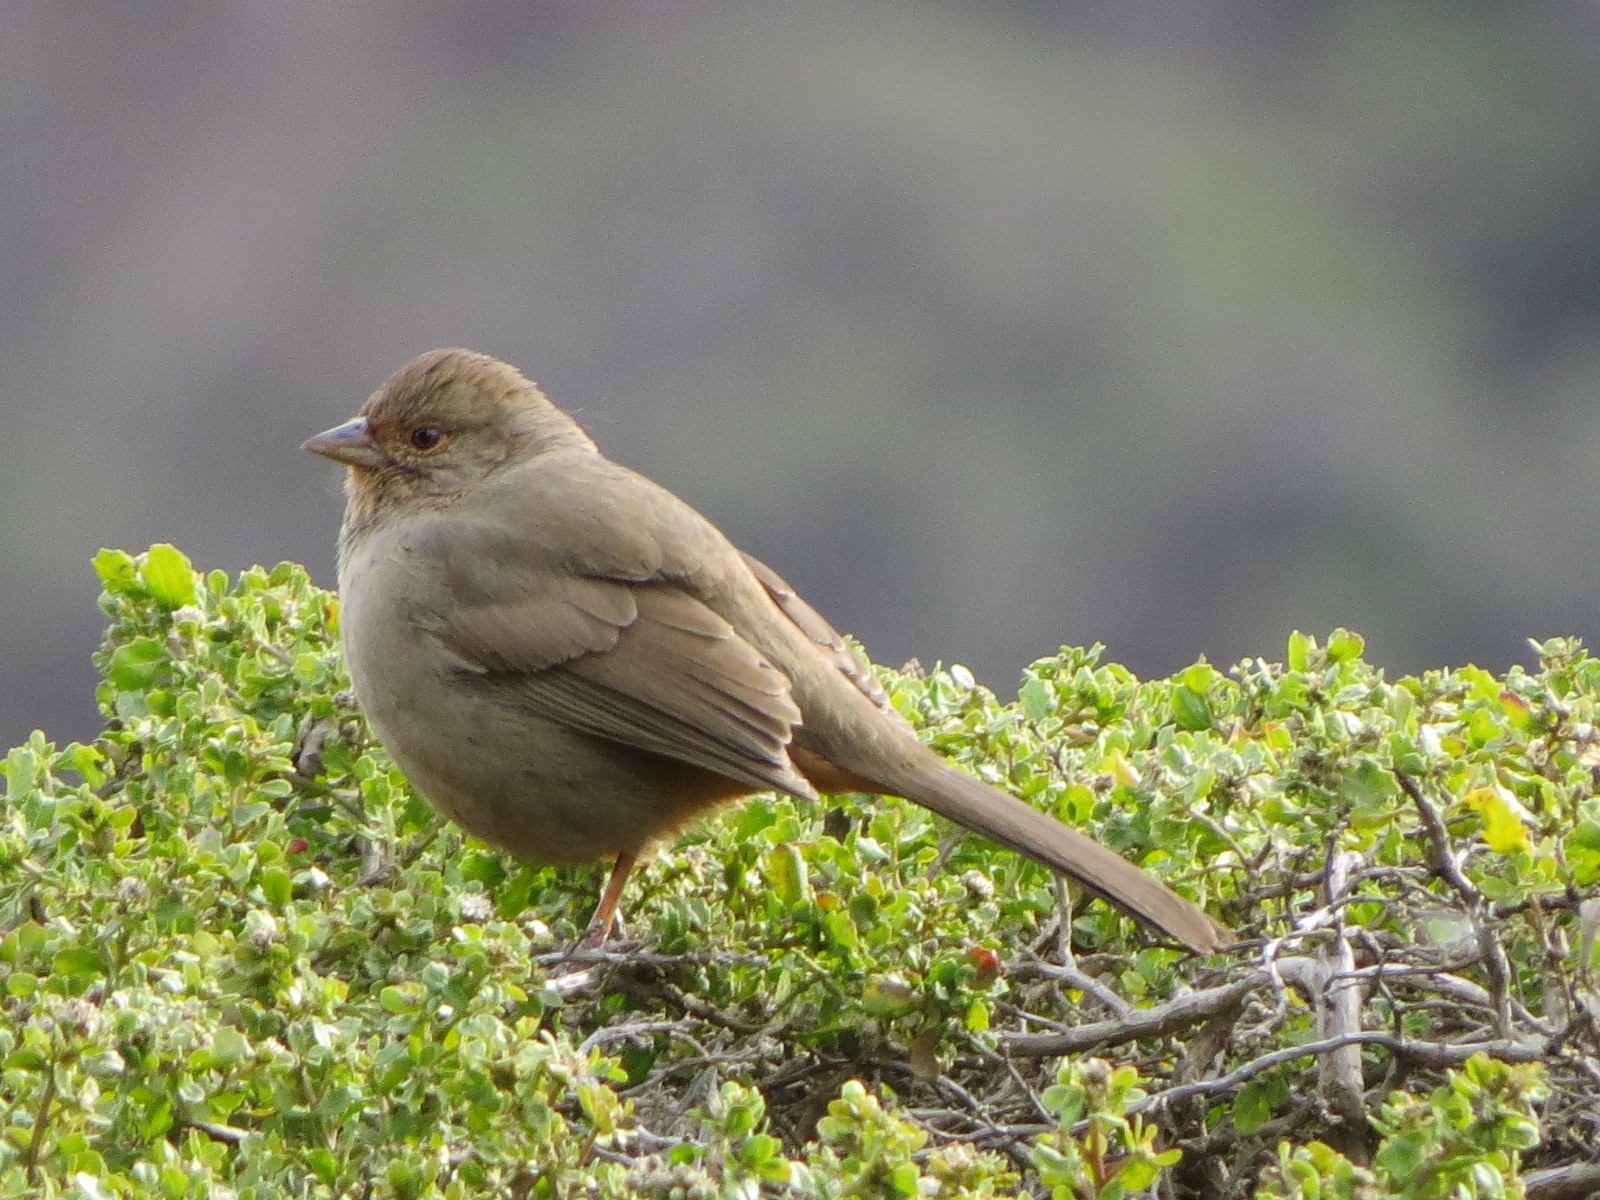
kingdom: Animalia
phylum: Chordata
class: Aves
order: Passeriformes
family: Passerellidae
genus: Melozone
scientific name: Melozone crissalis
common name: California towhee
